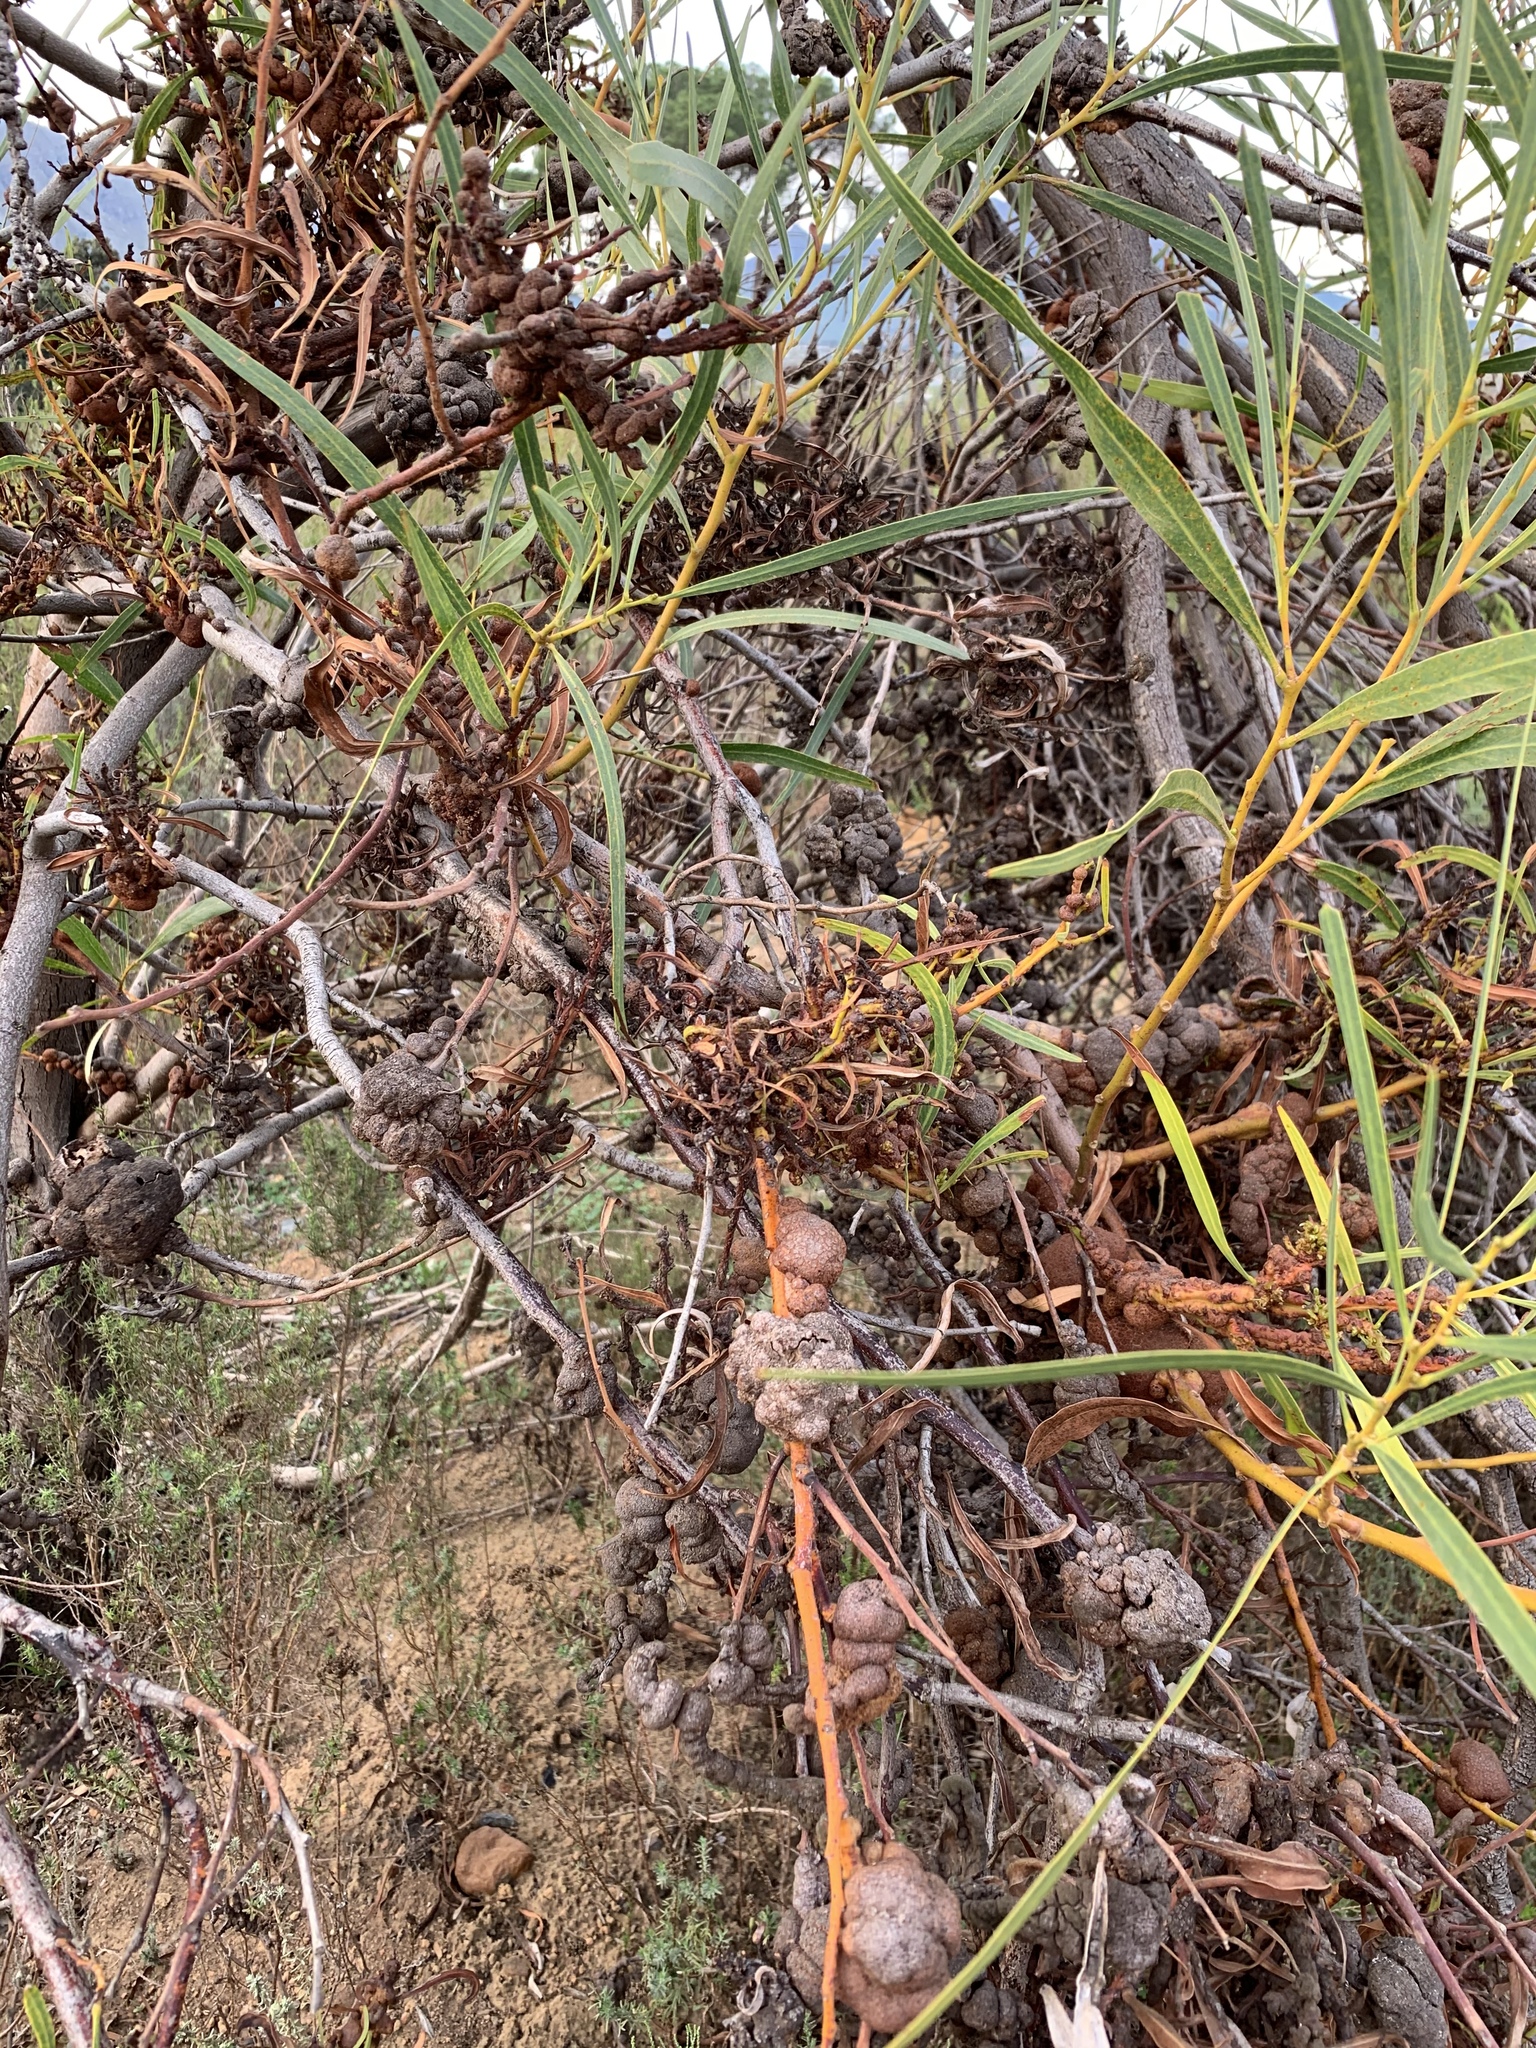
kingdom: Fungi
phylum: Basidiomycota
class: Pucciniomycetes
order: Pucciniales
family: Uromycladiaceae
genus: Uromycladium
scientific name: Uromycladium morrisii
